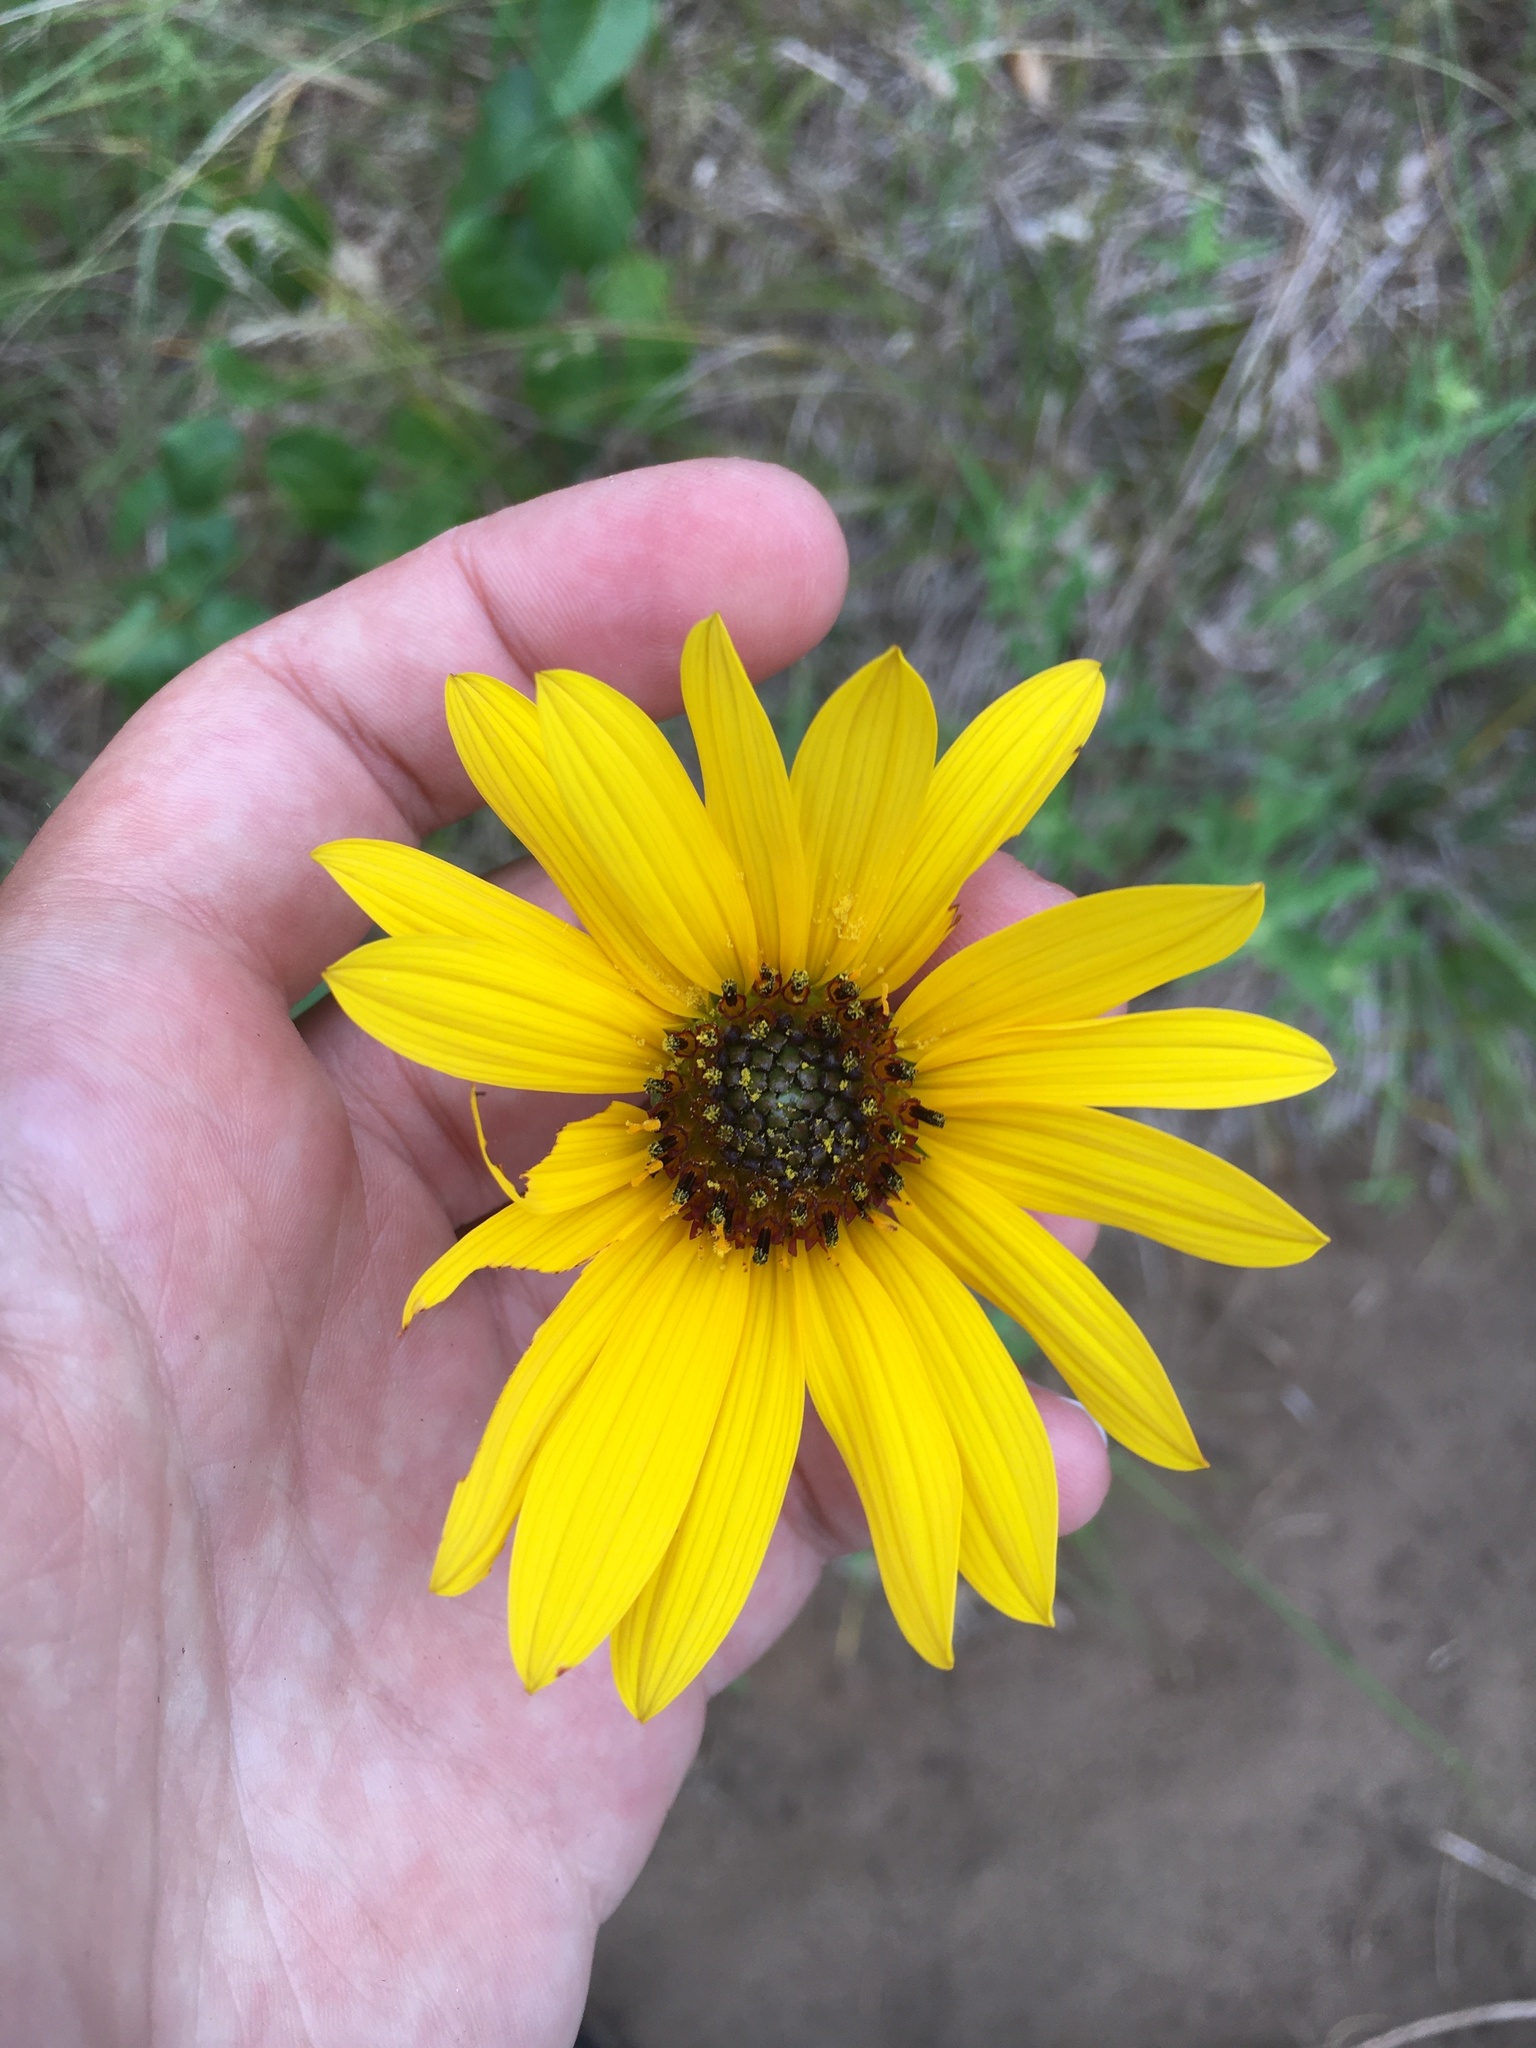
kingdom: Plantae
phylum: Tracheophyta
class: Magnoliopsida
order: Asterales
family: Asteraceae
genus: Helianthus
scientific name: Helianthus pauciflorus
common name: Stiff sunflower
